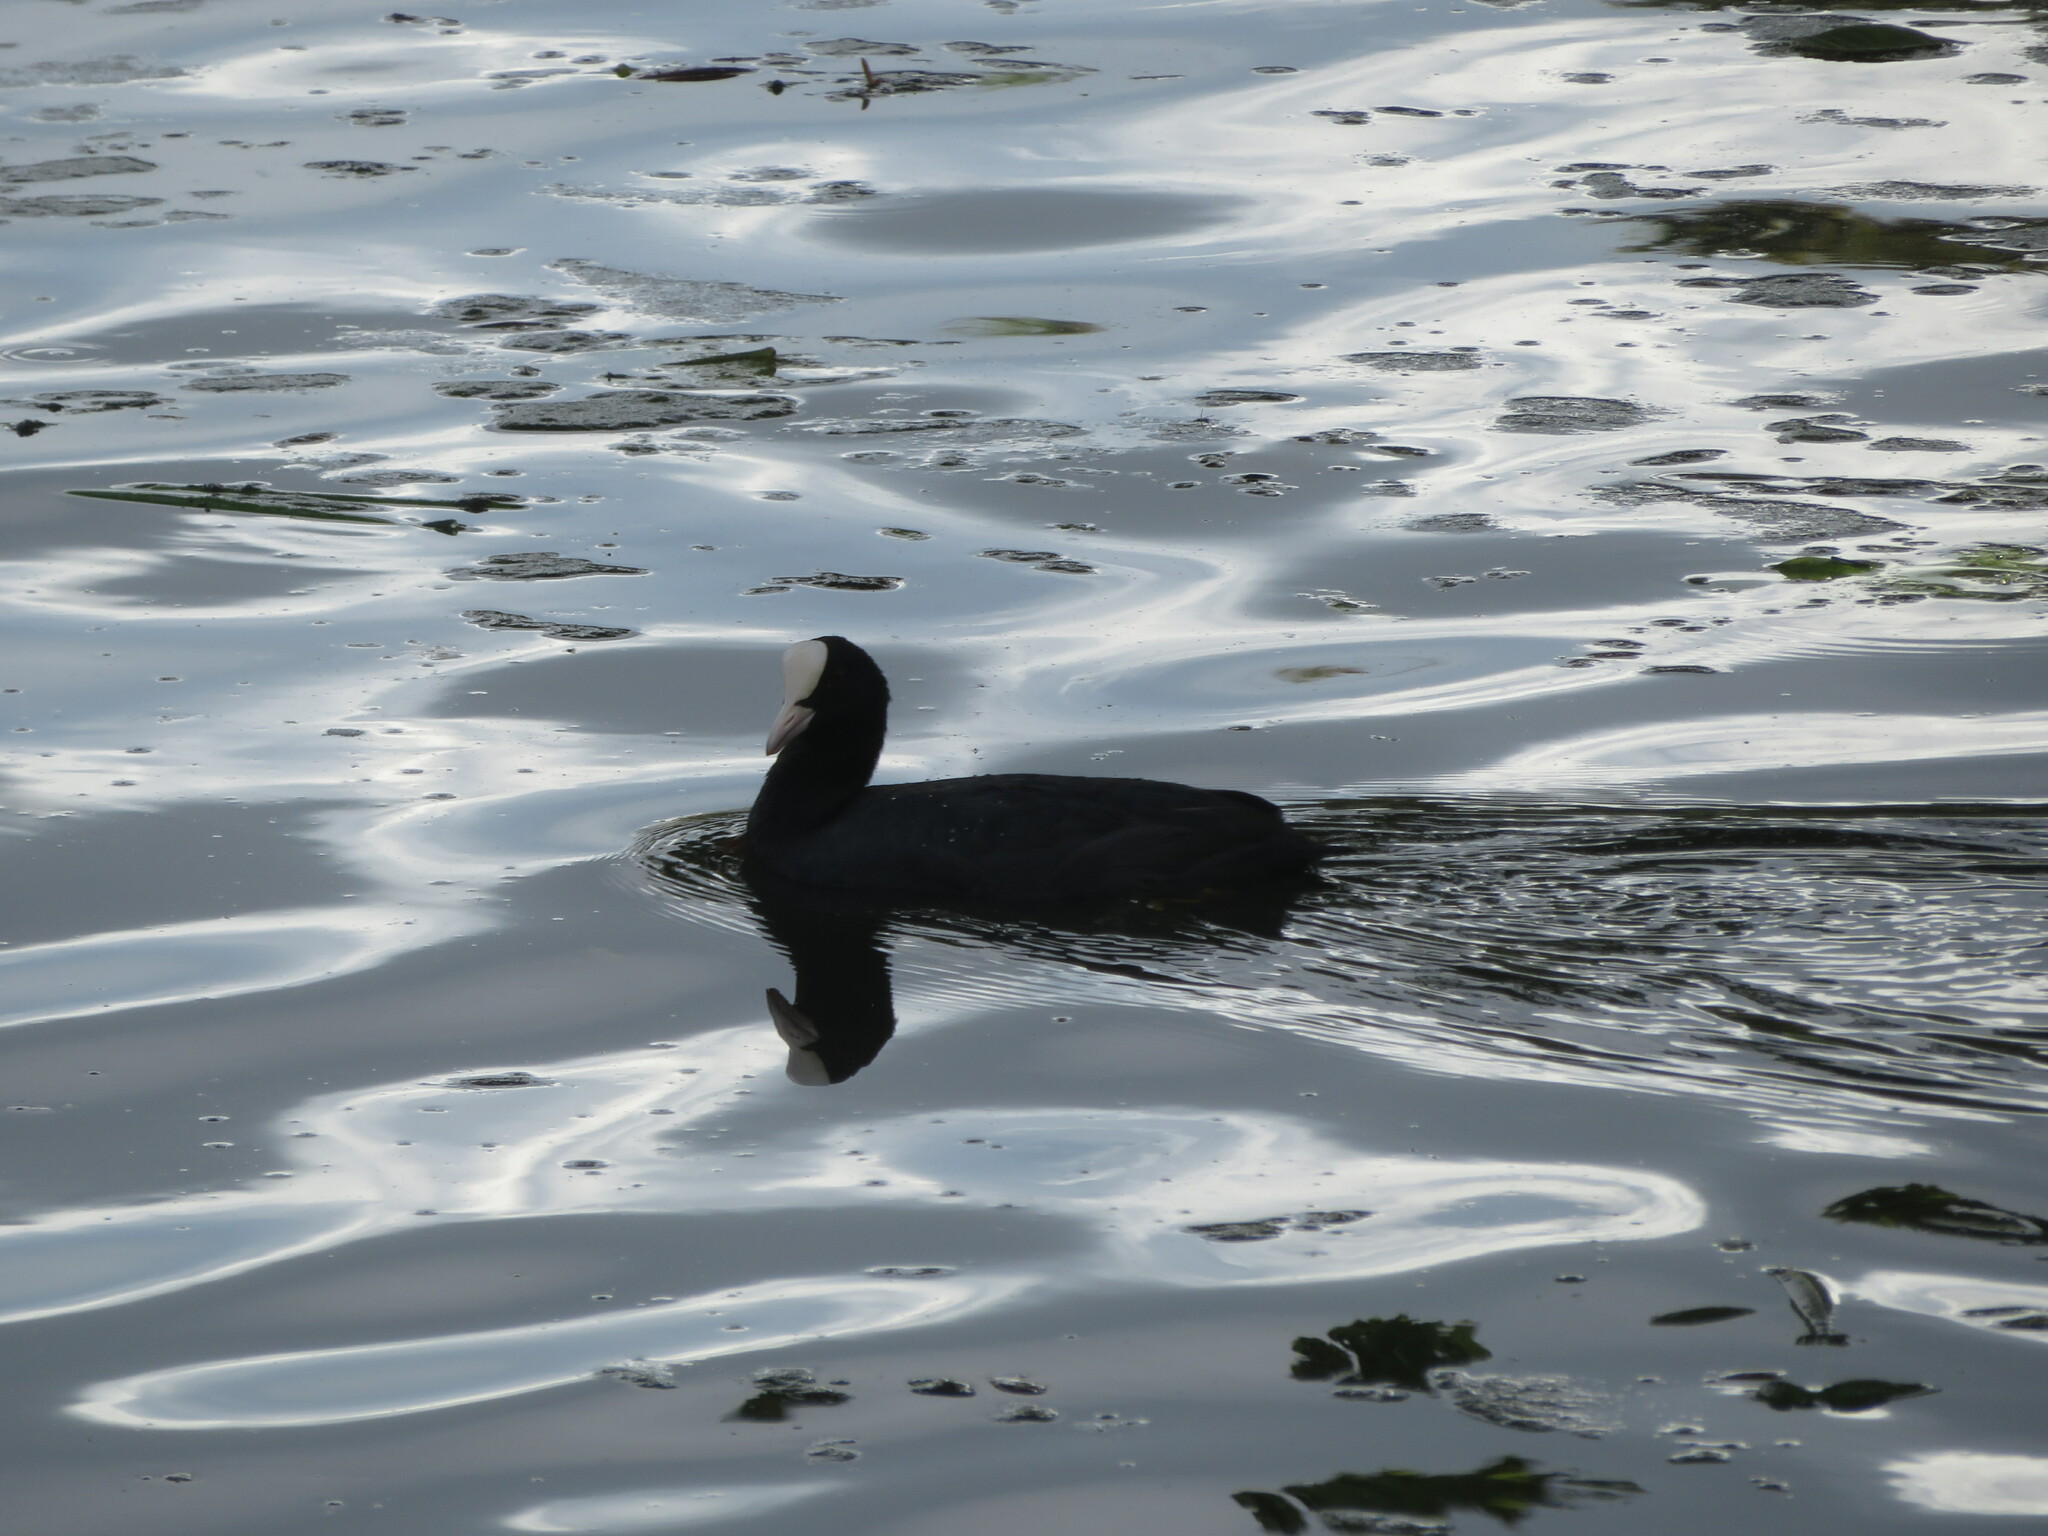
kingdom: Animalia
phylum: Chordata
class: Aves
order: Gruiformes
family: Rallidae
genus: Fulica
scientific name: Fulica atra
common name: Eurasian coot
